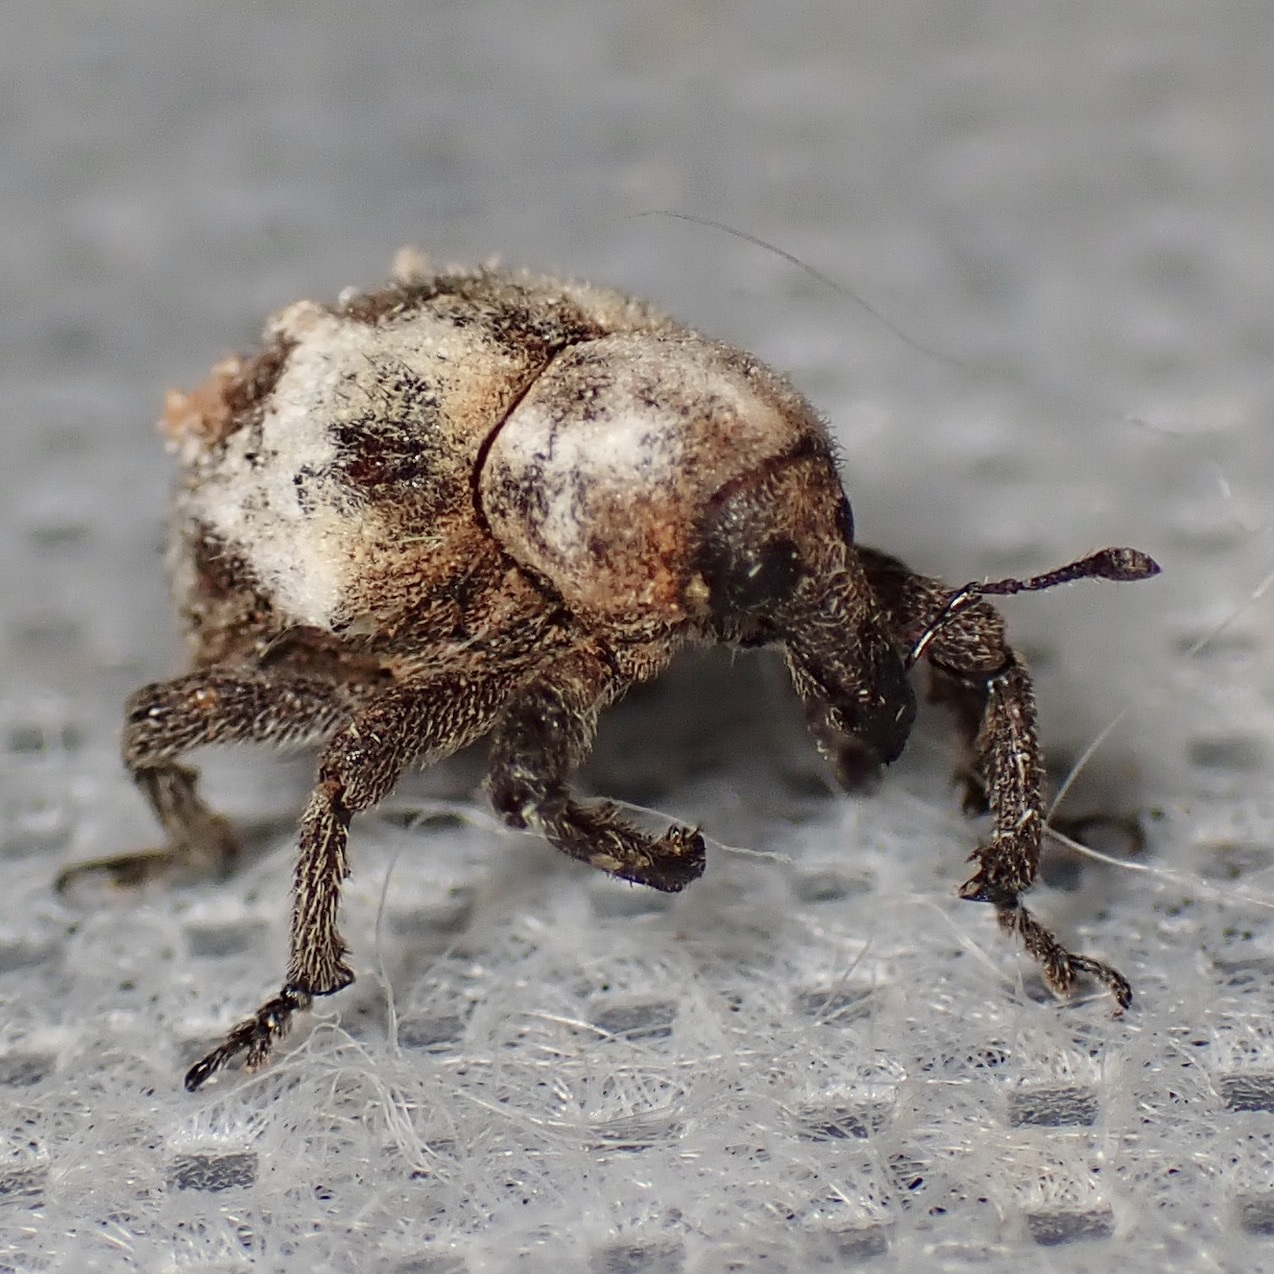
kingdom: Animalia
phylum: Arthropoda
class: Insecta
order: Coleoptera
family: Curculionidae
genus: Sternechus
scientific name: Sternechus paludatus
